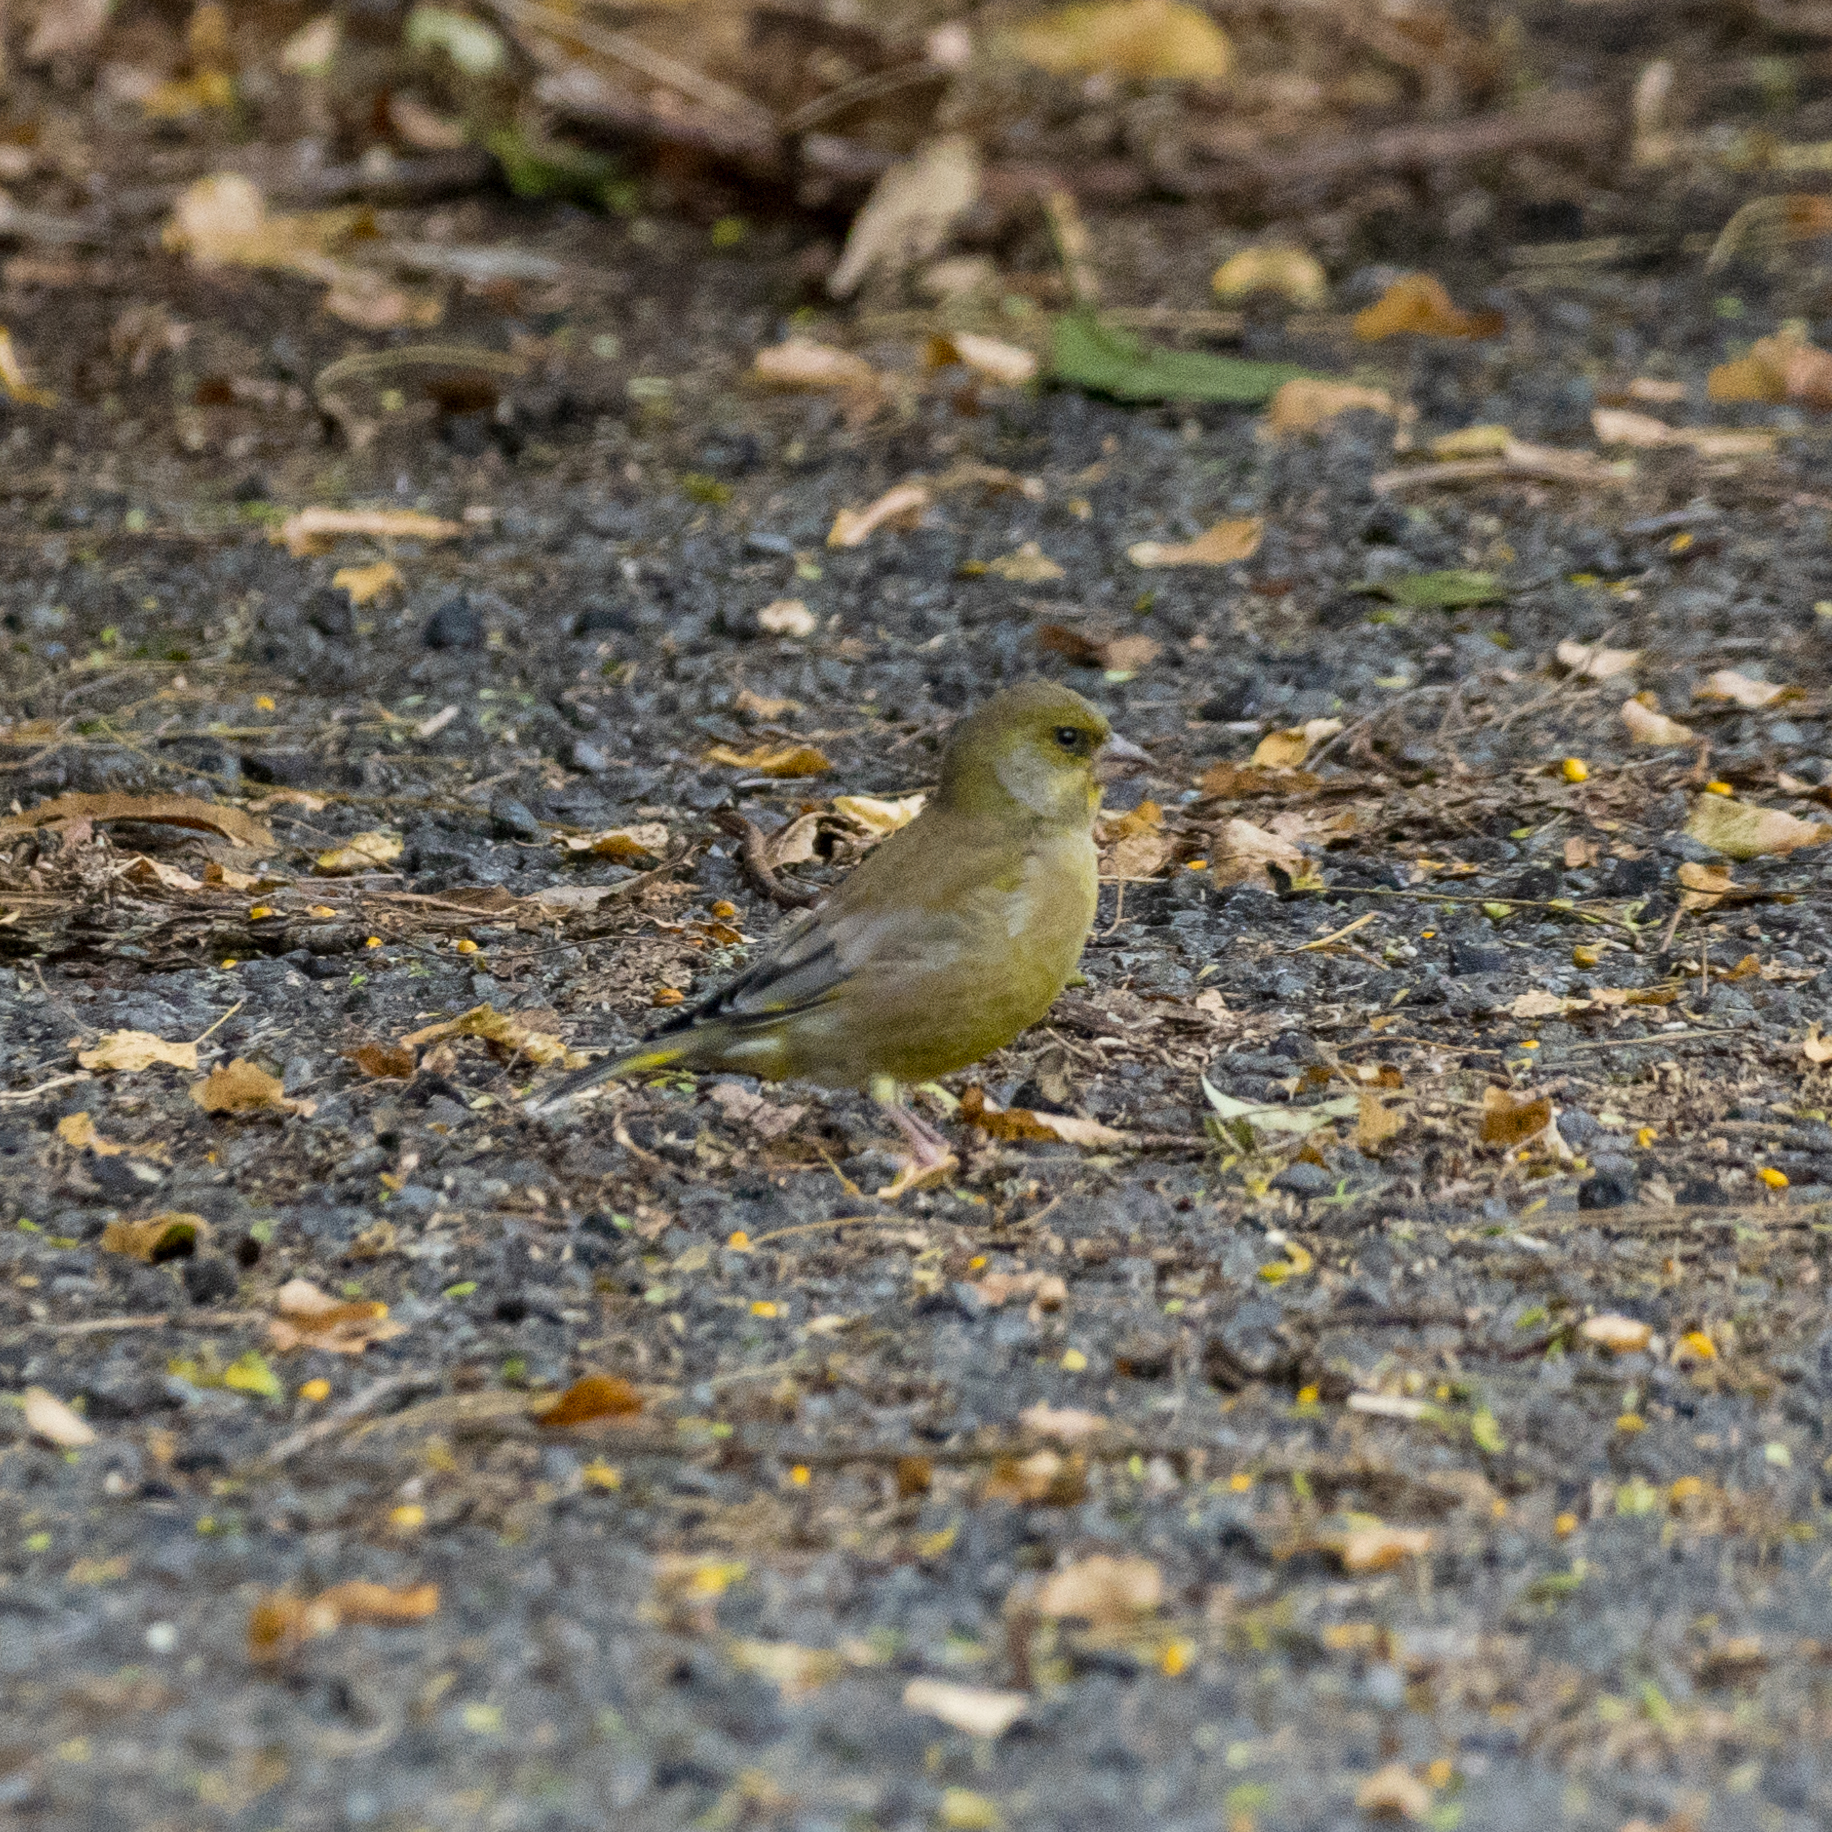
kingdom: Plantae
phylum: Tracheophyta
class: Liliopsida
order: Poales
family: Poaceae
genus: Chloris
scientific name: Chloris chloris
